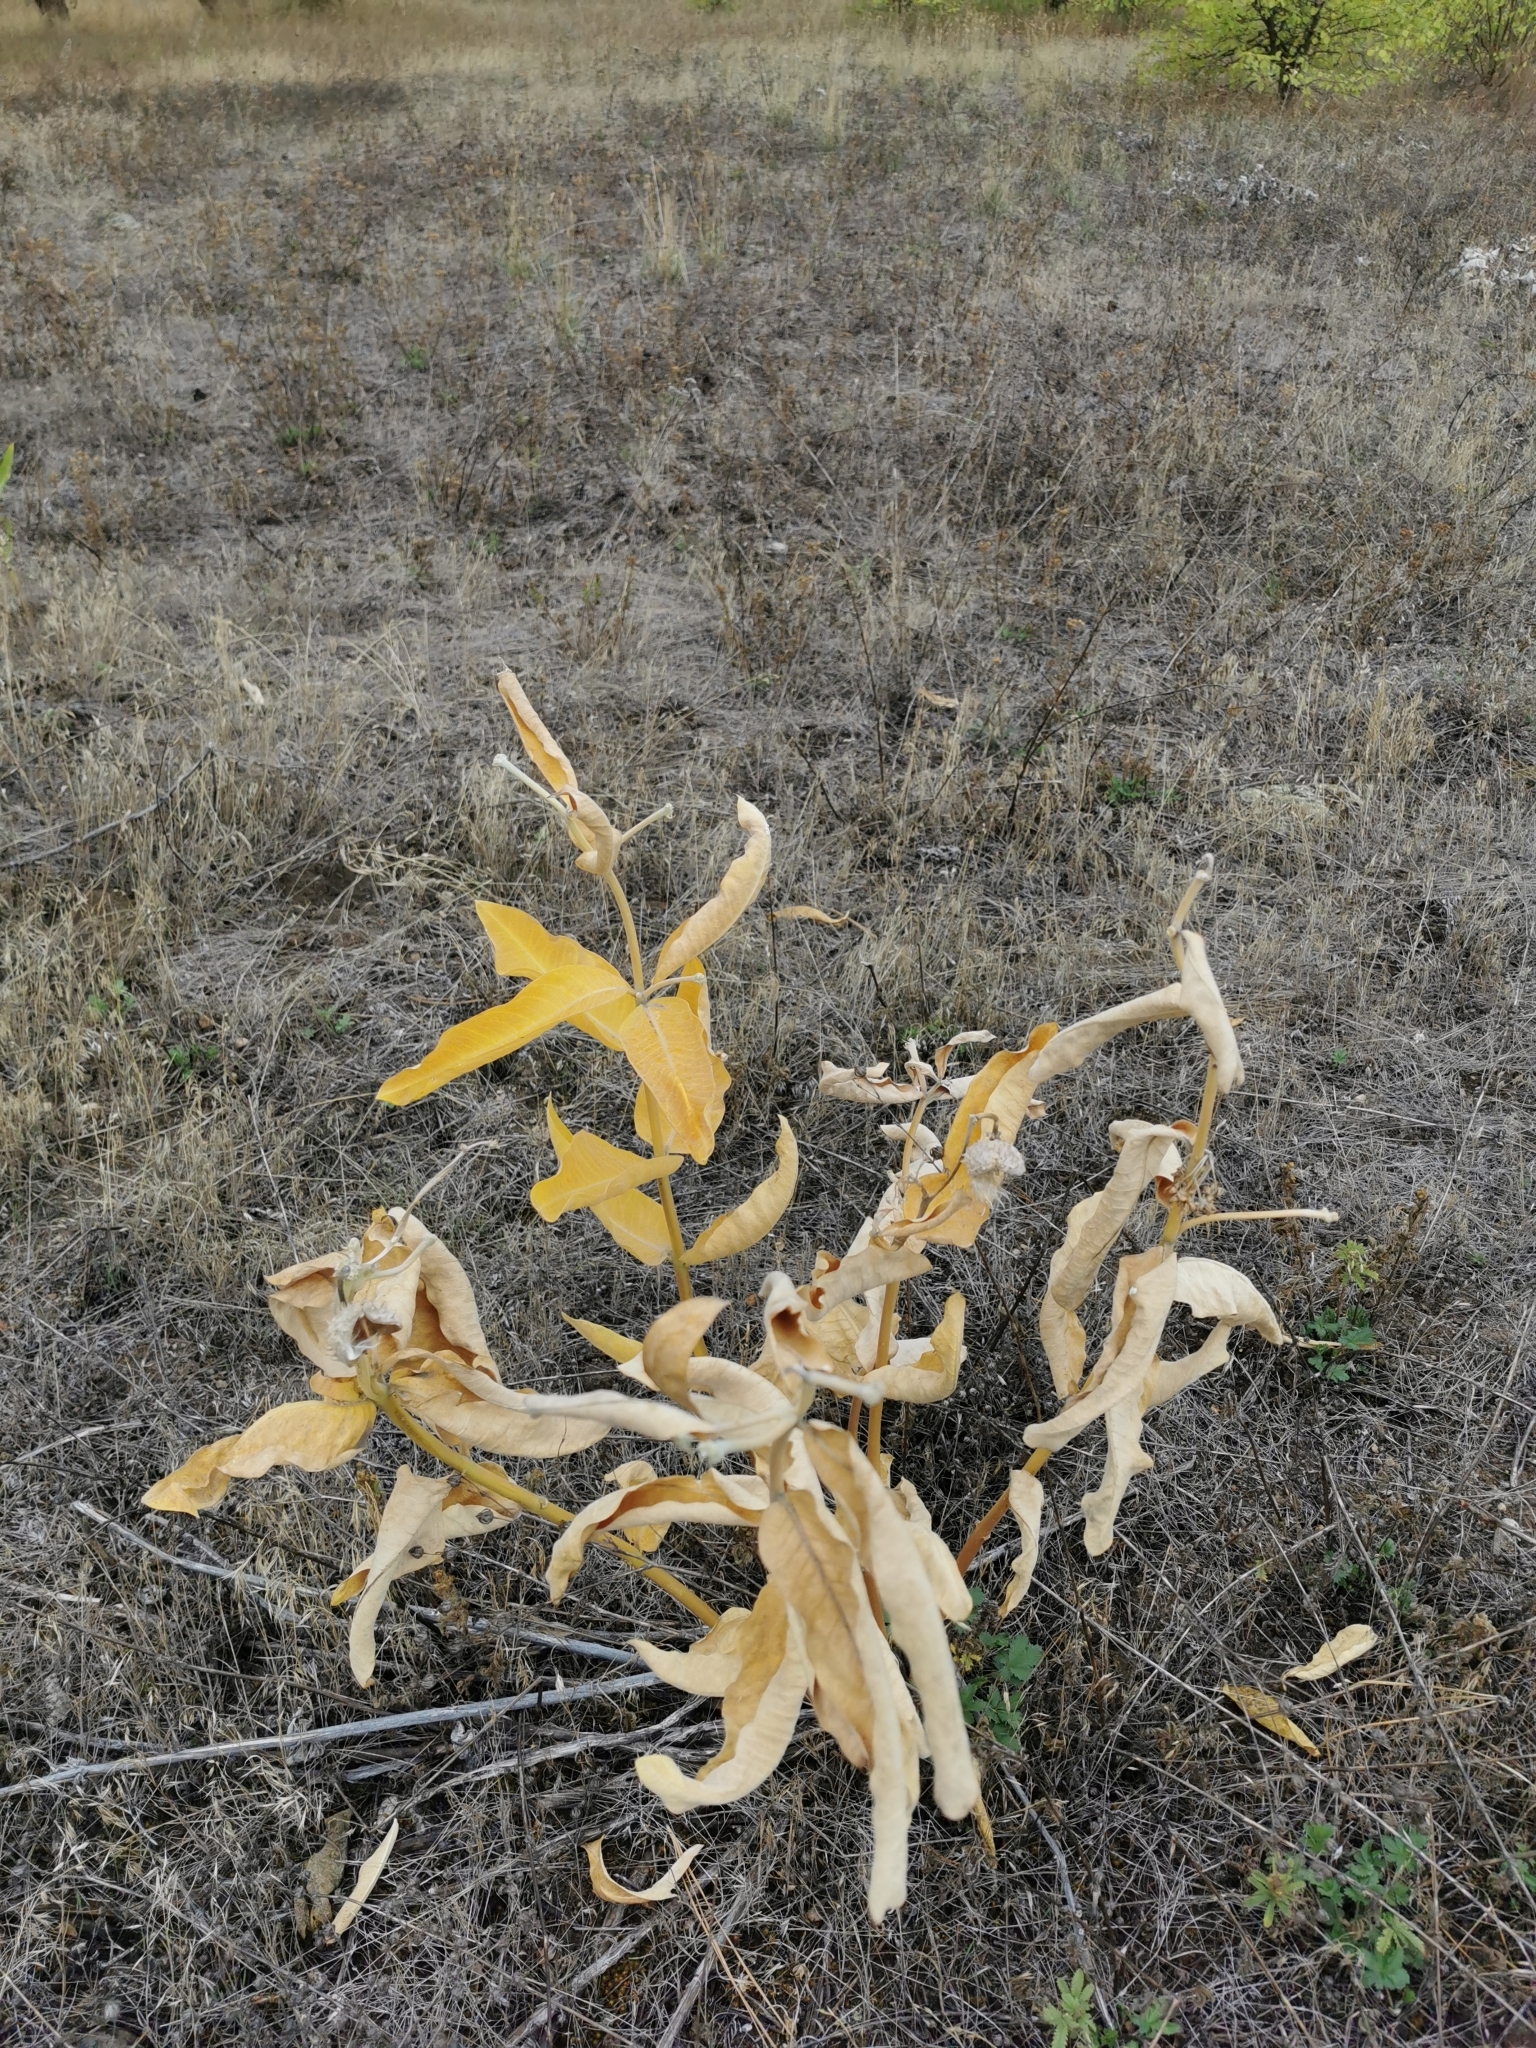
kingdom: Plantae
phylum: Tracheophyta
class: Magnoliopsida
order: Gentianales
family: Apocynaceae
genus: Asclepias
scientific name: Asclepias speciosa
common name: Showy milkweed
